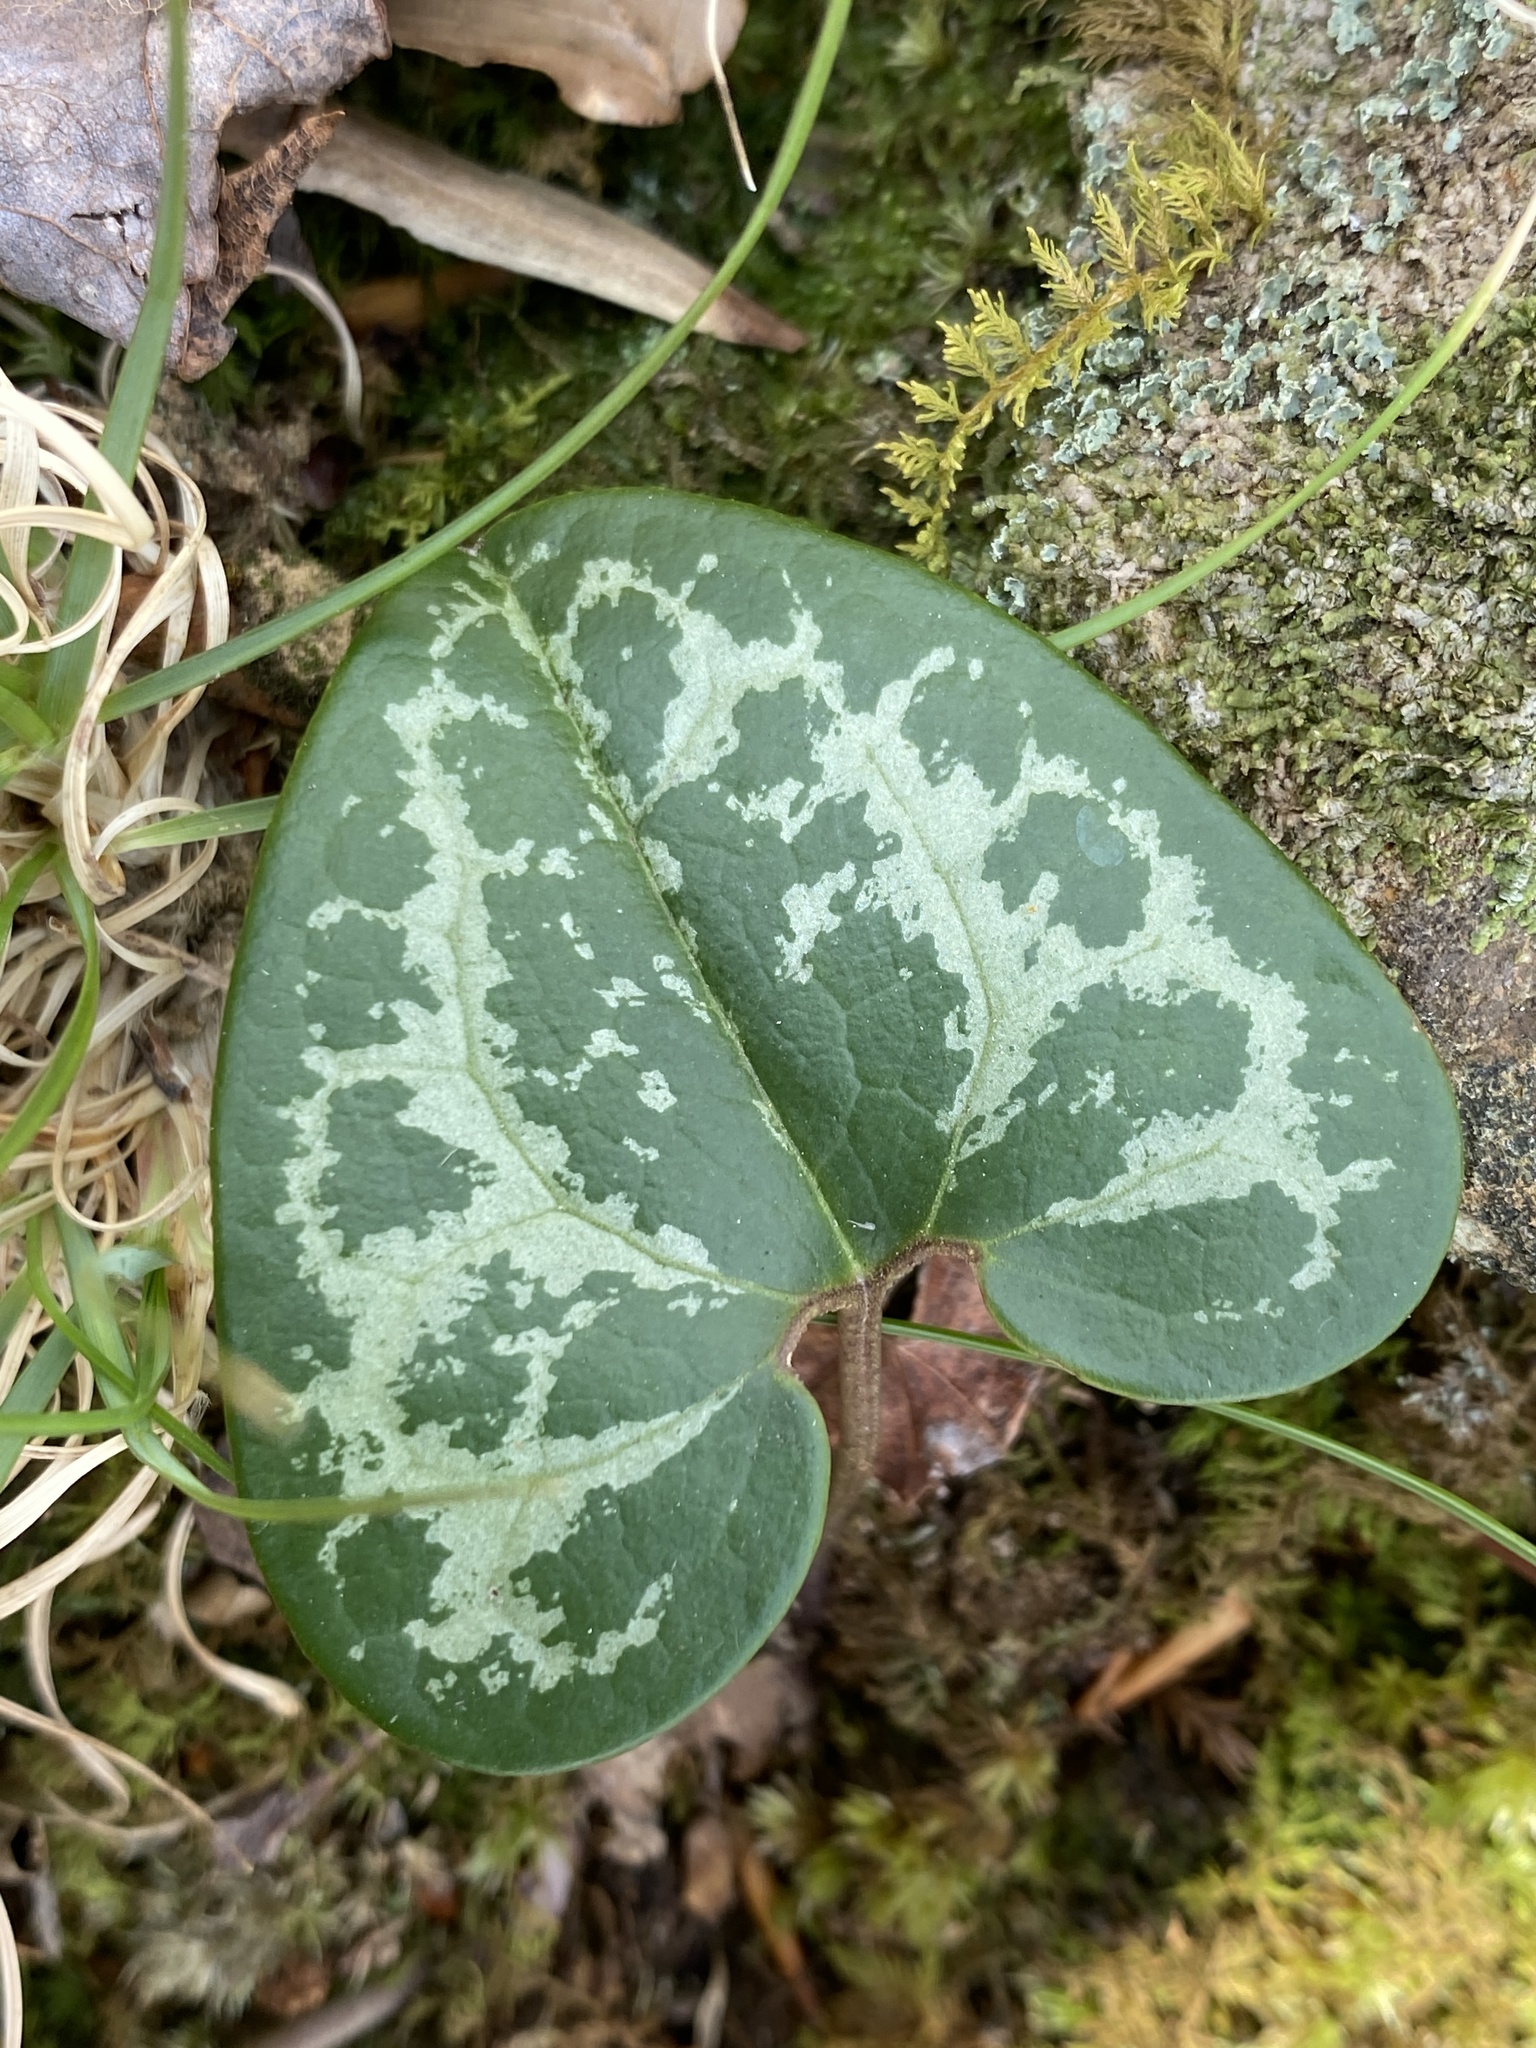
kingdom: Plantae
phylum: Tracheophyta
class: Magnoliopsida
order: Piperales
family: Aristolochiaceae
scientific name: Aristolochiaceae
